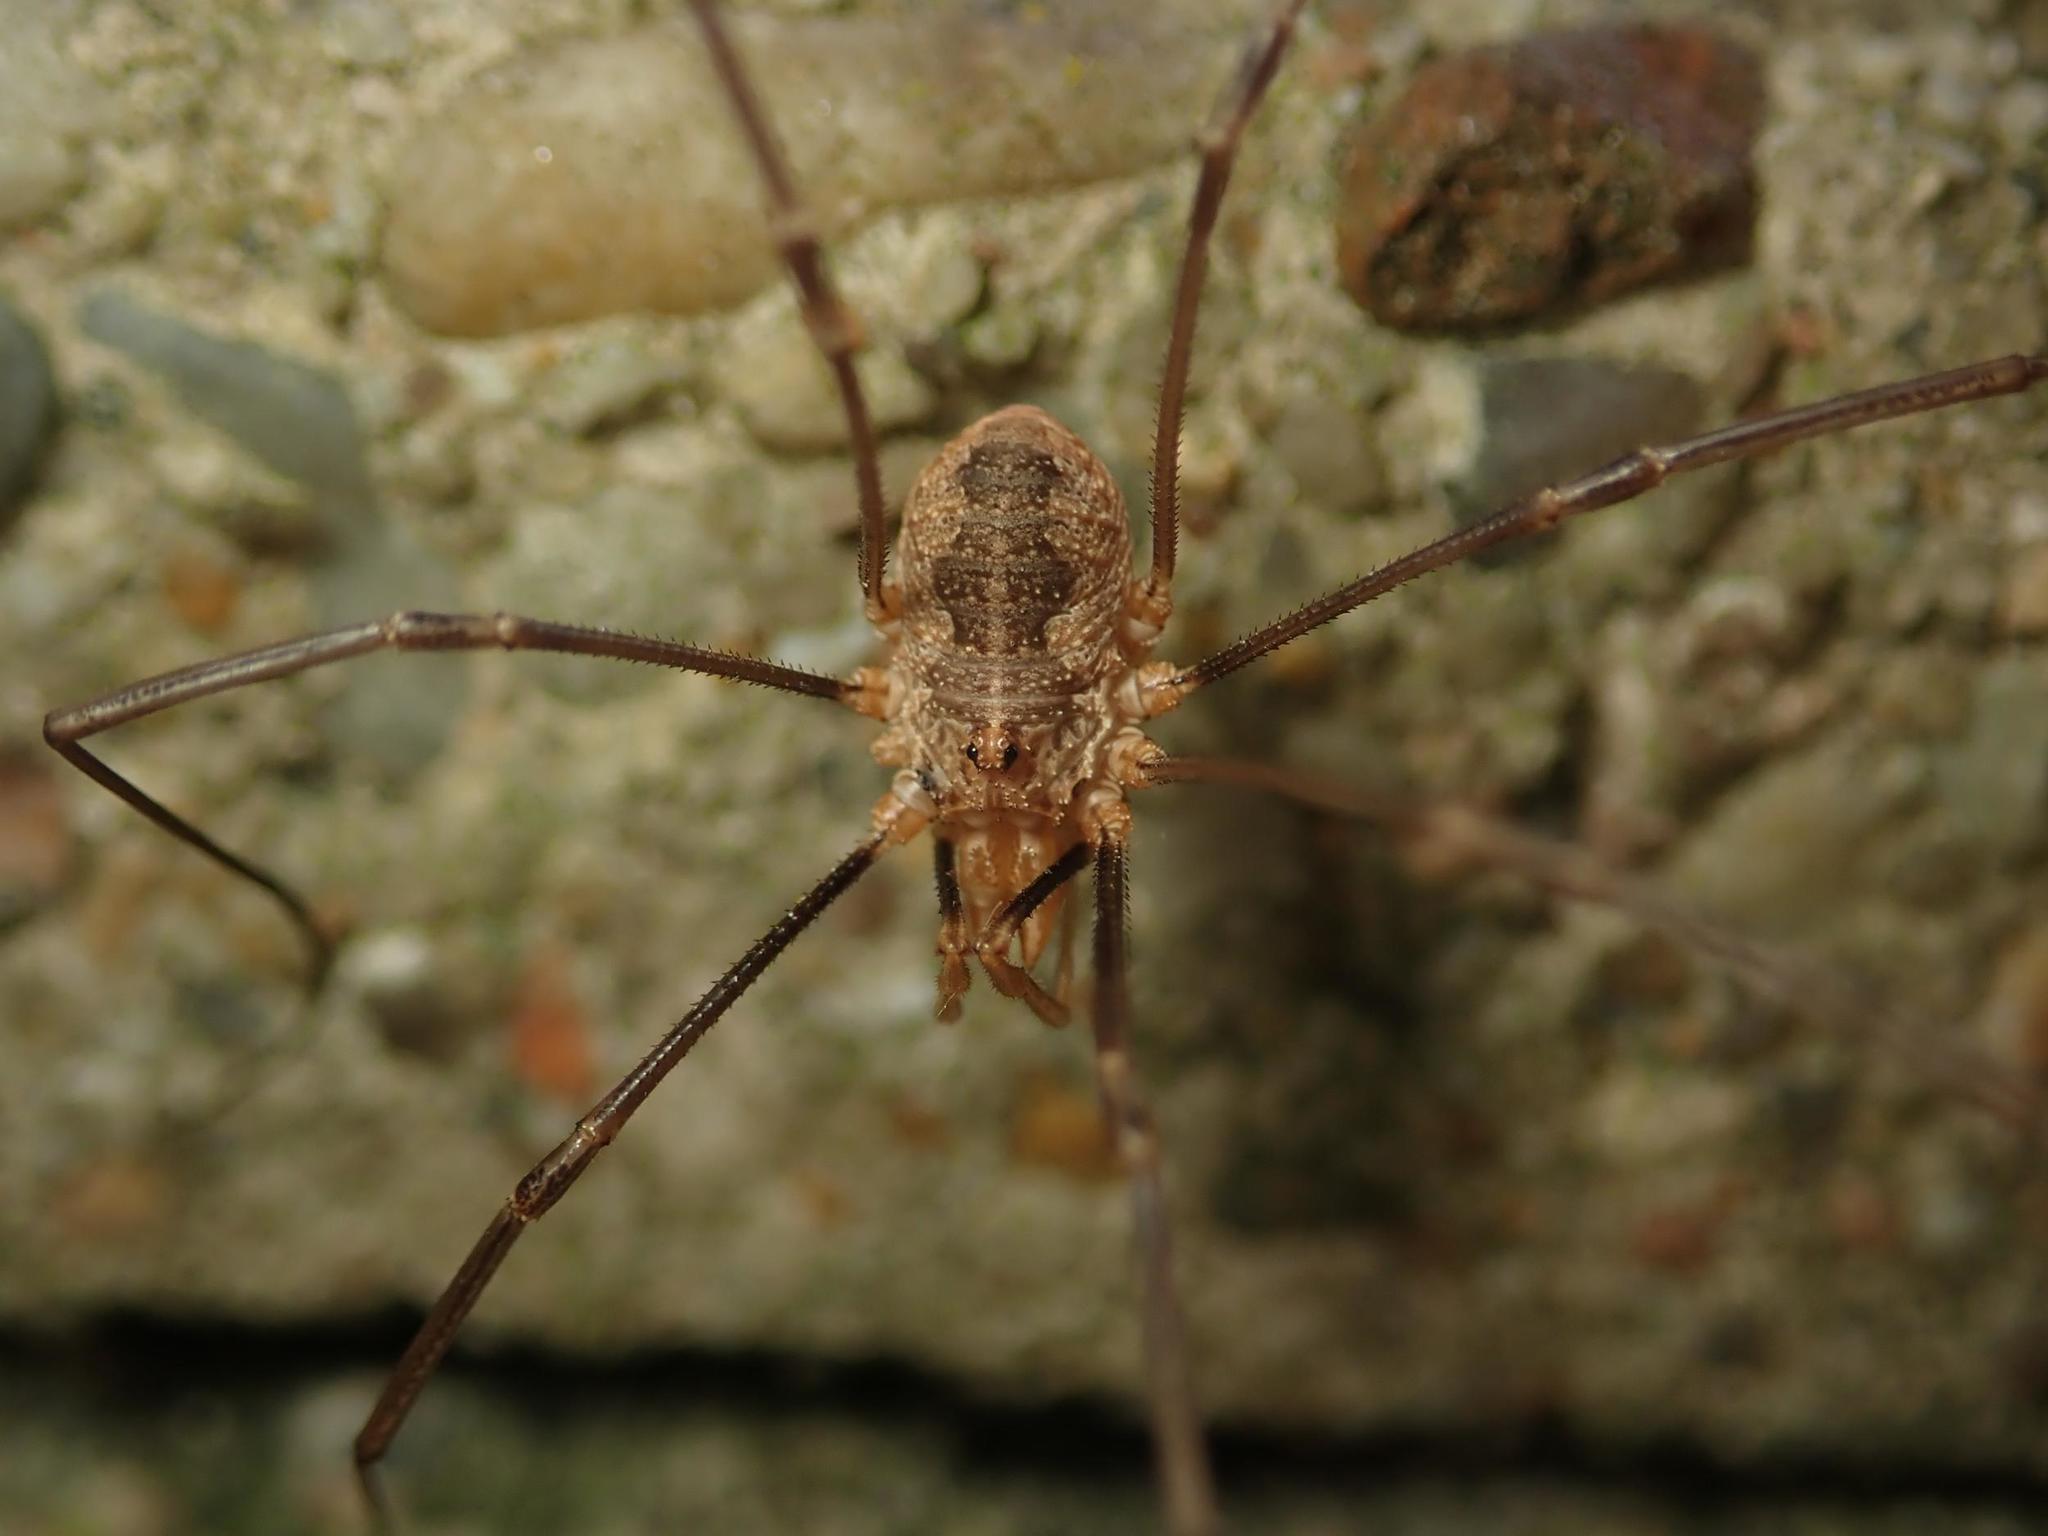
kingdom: Animalia
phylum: Arthropoda
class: Arachnida
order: Opiliones
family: Phalangiidae
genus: Phalangium
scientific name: Phalangium opilio
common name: Daddy longleg
